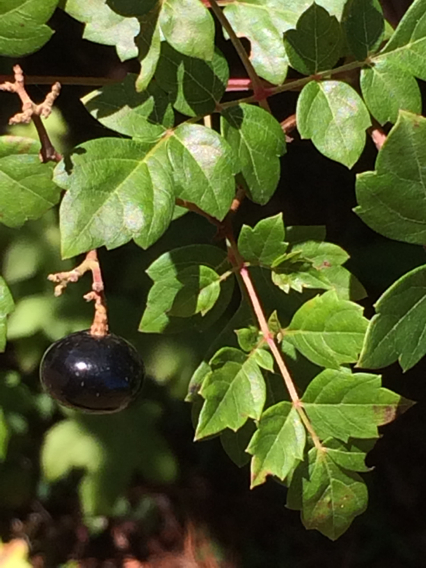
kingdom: Plantae
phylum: Tracheophyta
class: Magnoliopsida
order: Vitales
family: Vitaceae
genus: Nekemias
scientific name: Nekemias arborea
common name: Peppervine
